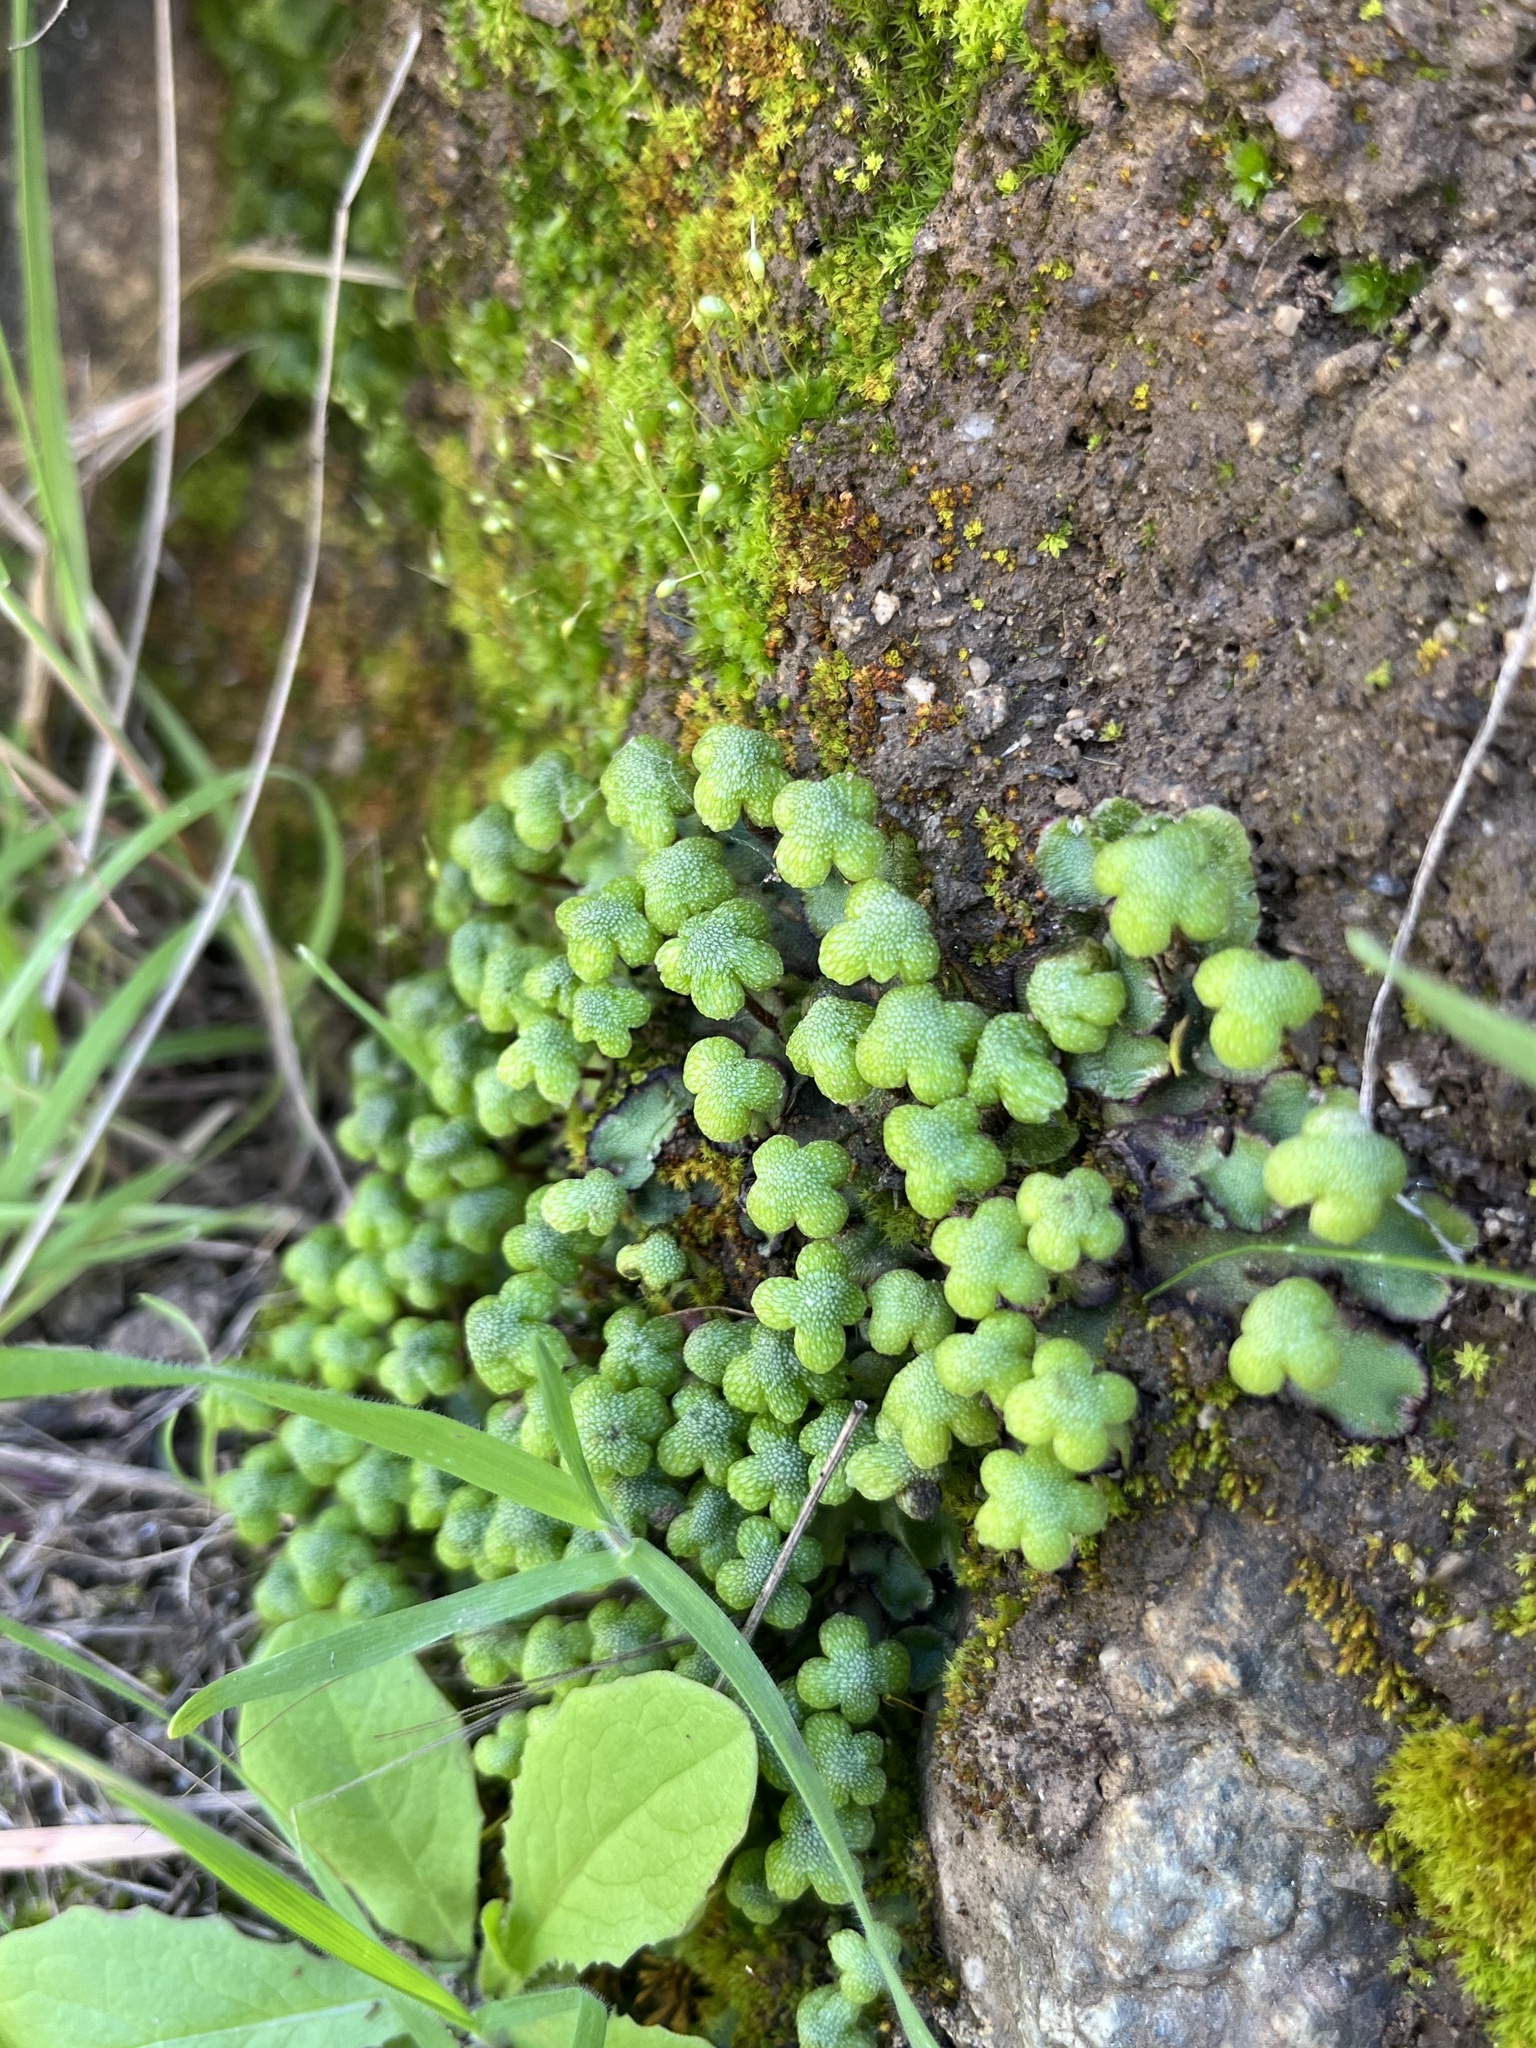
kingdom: Plantae
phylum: Marchantiophyta
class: Marchantiopsida
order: Marchantiales
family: Aytoniaceae
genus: Asterella
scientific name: Asterella californica
